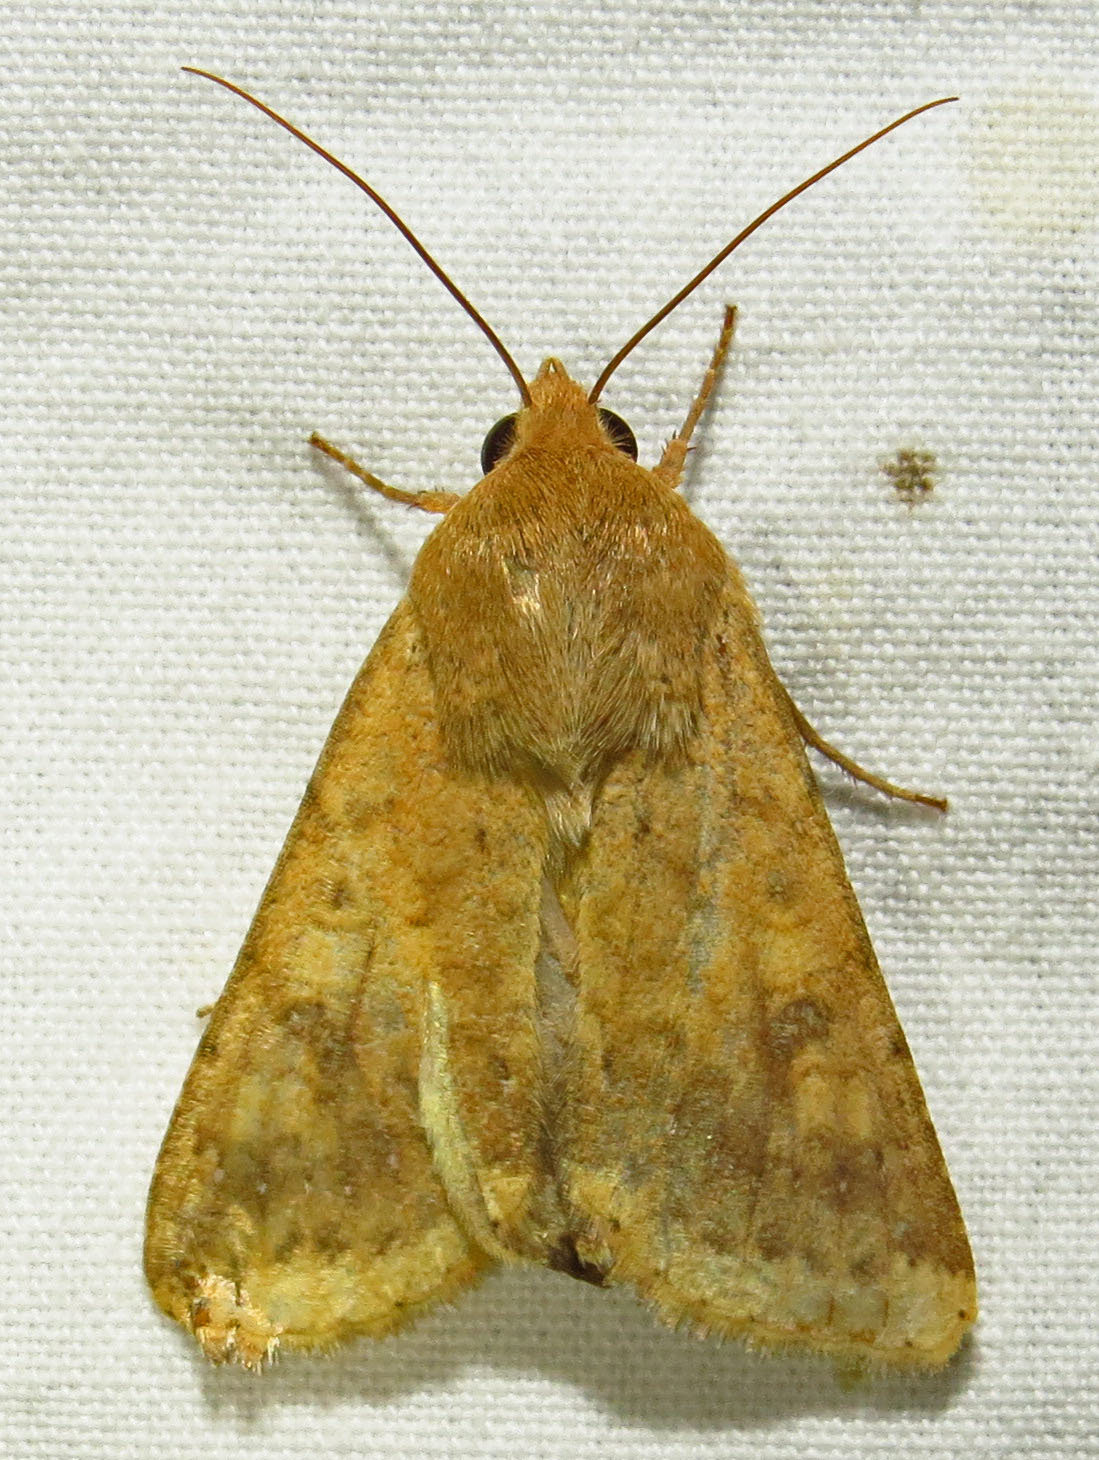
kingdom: Animalia
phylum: Arthropoda
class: Insecta
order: Lepidoptera
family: Noctuidae
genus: Helicoverpa
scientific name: Helicoverpa zea
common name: Bollworm
